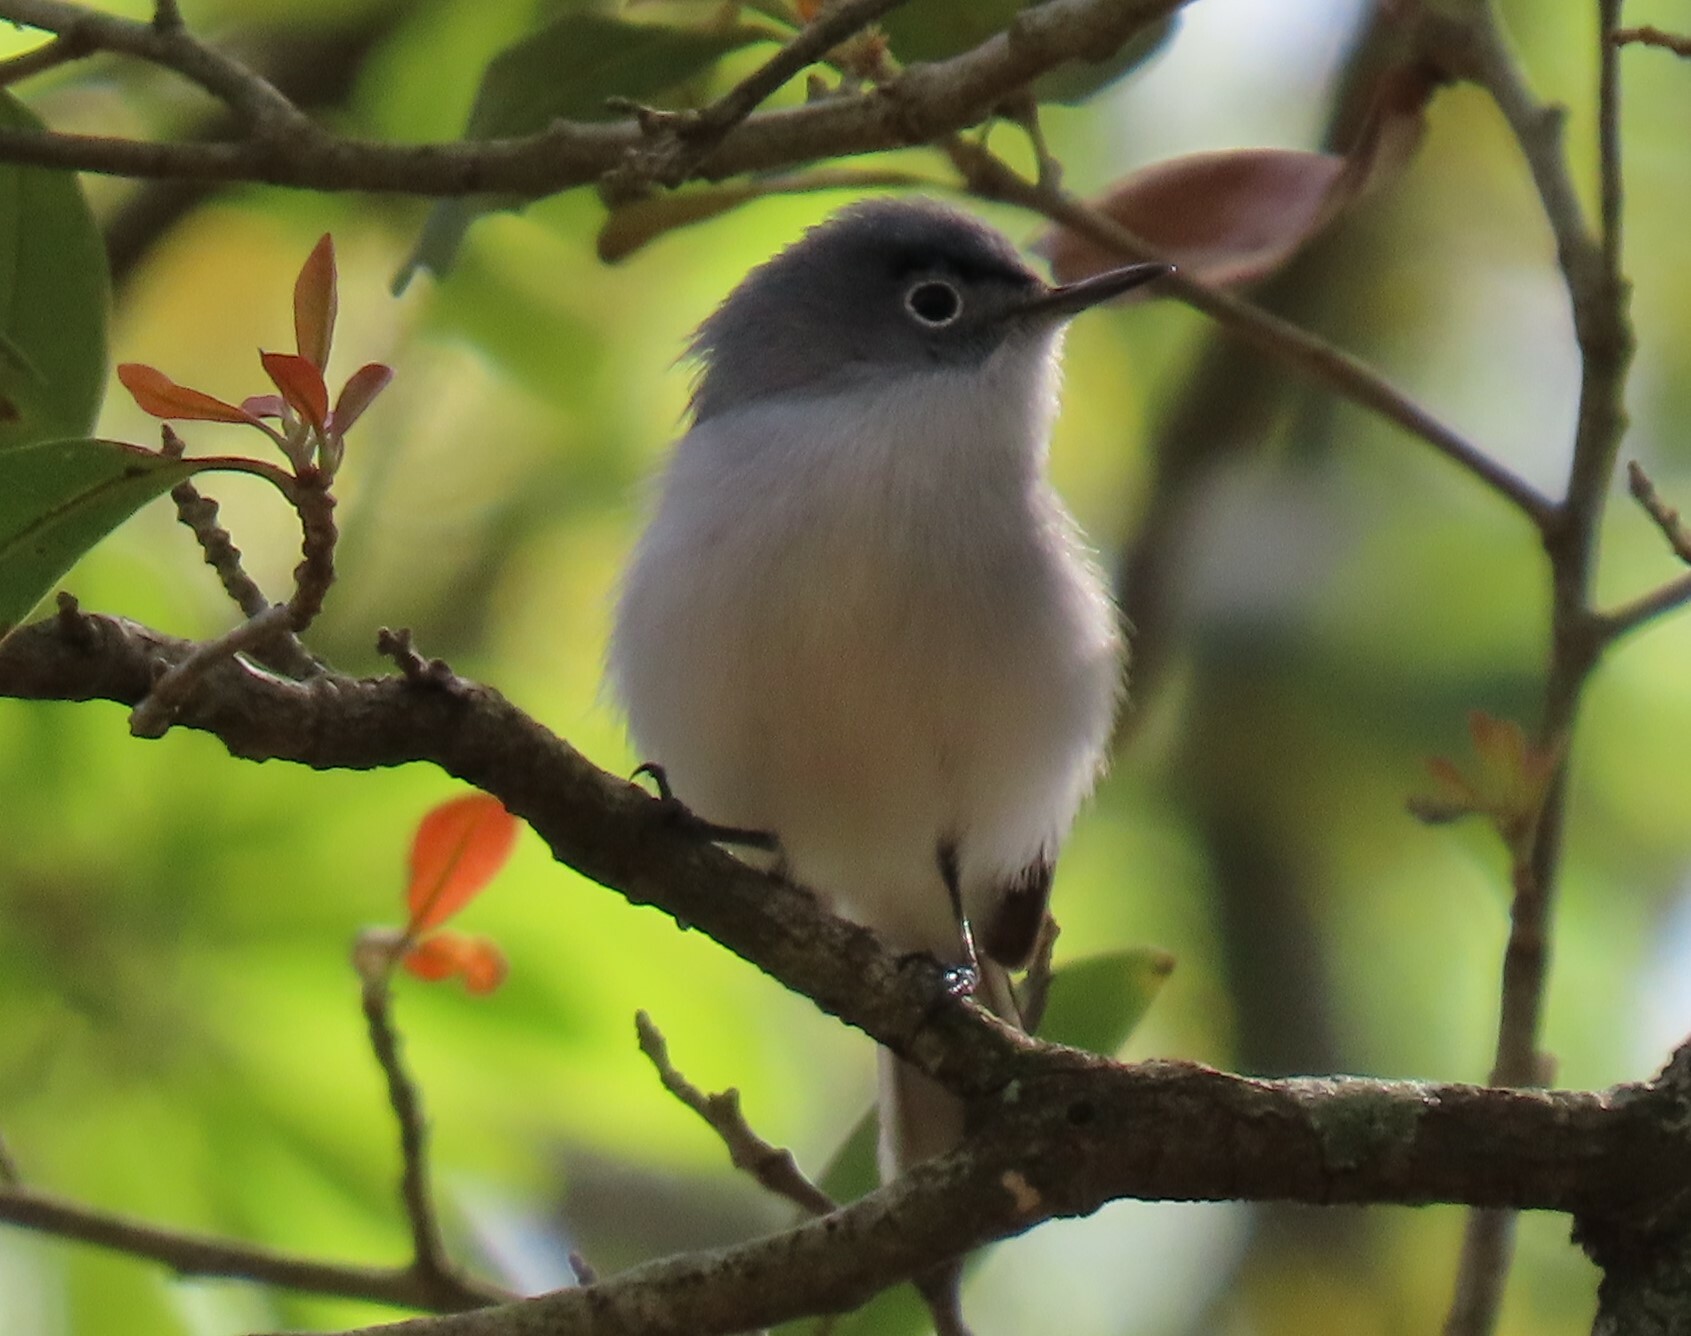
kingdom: Animalia
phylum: Chordata
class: Aves
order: Passeriformes
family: Polioptilidae
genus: Polioptila
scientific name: Polioptila caerulea
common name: Blue-gray gnatcatcher
